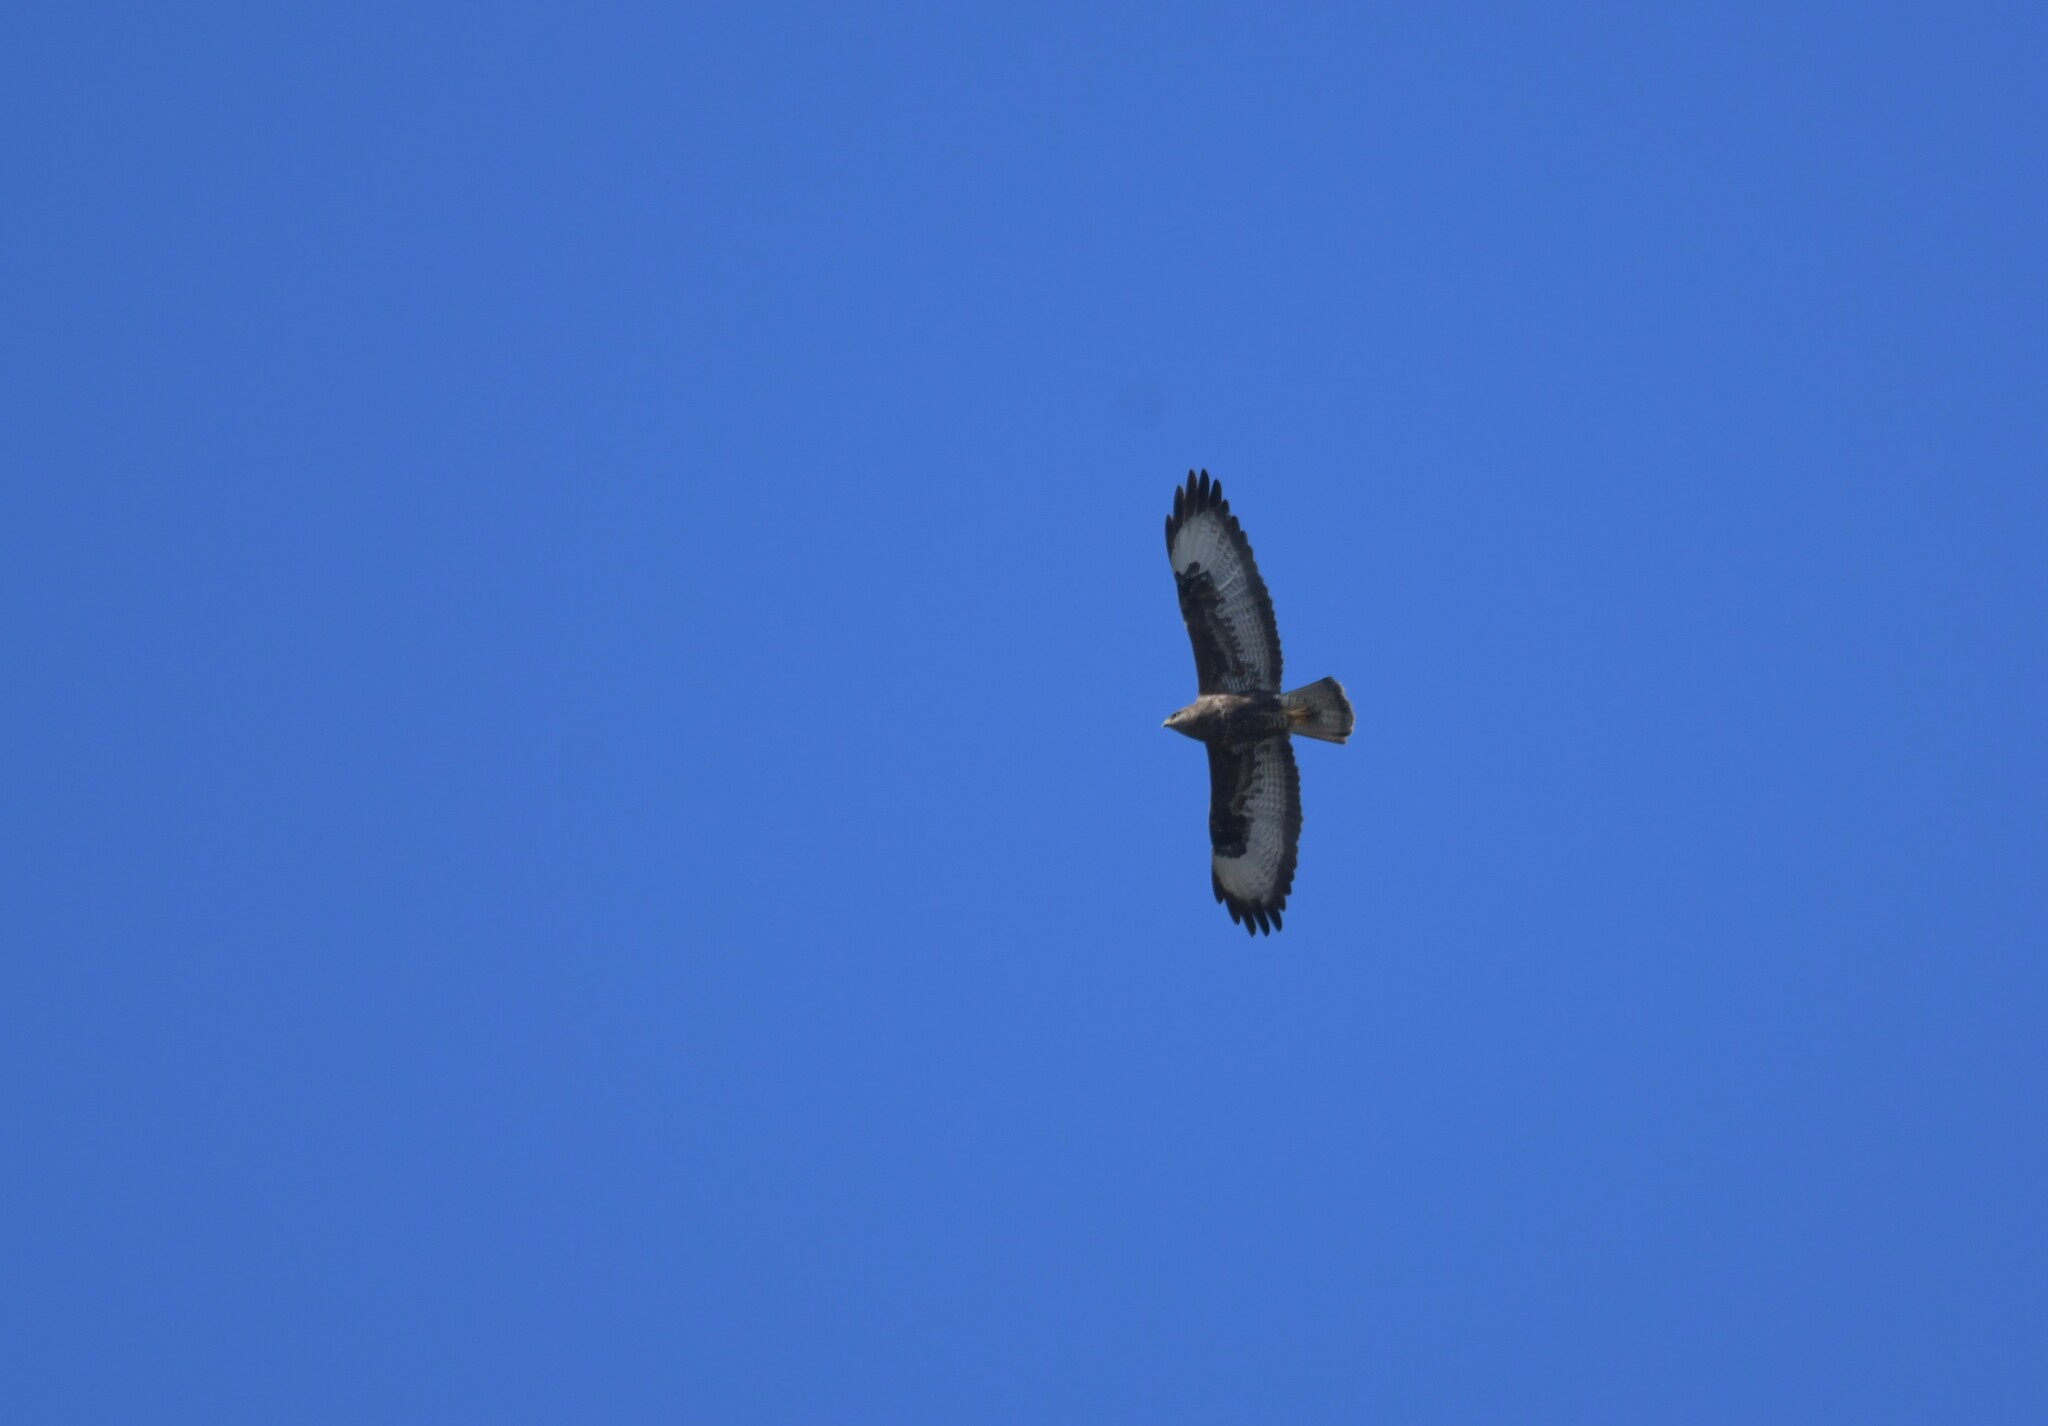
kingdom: Animalia
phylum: Chordata
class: Aves
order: Accipitriformes
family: Accipitridae
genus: Buteo
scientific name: Buteo buteo
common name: Common buzzard
